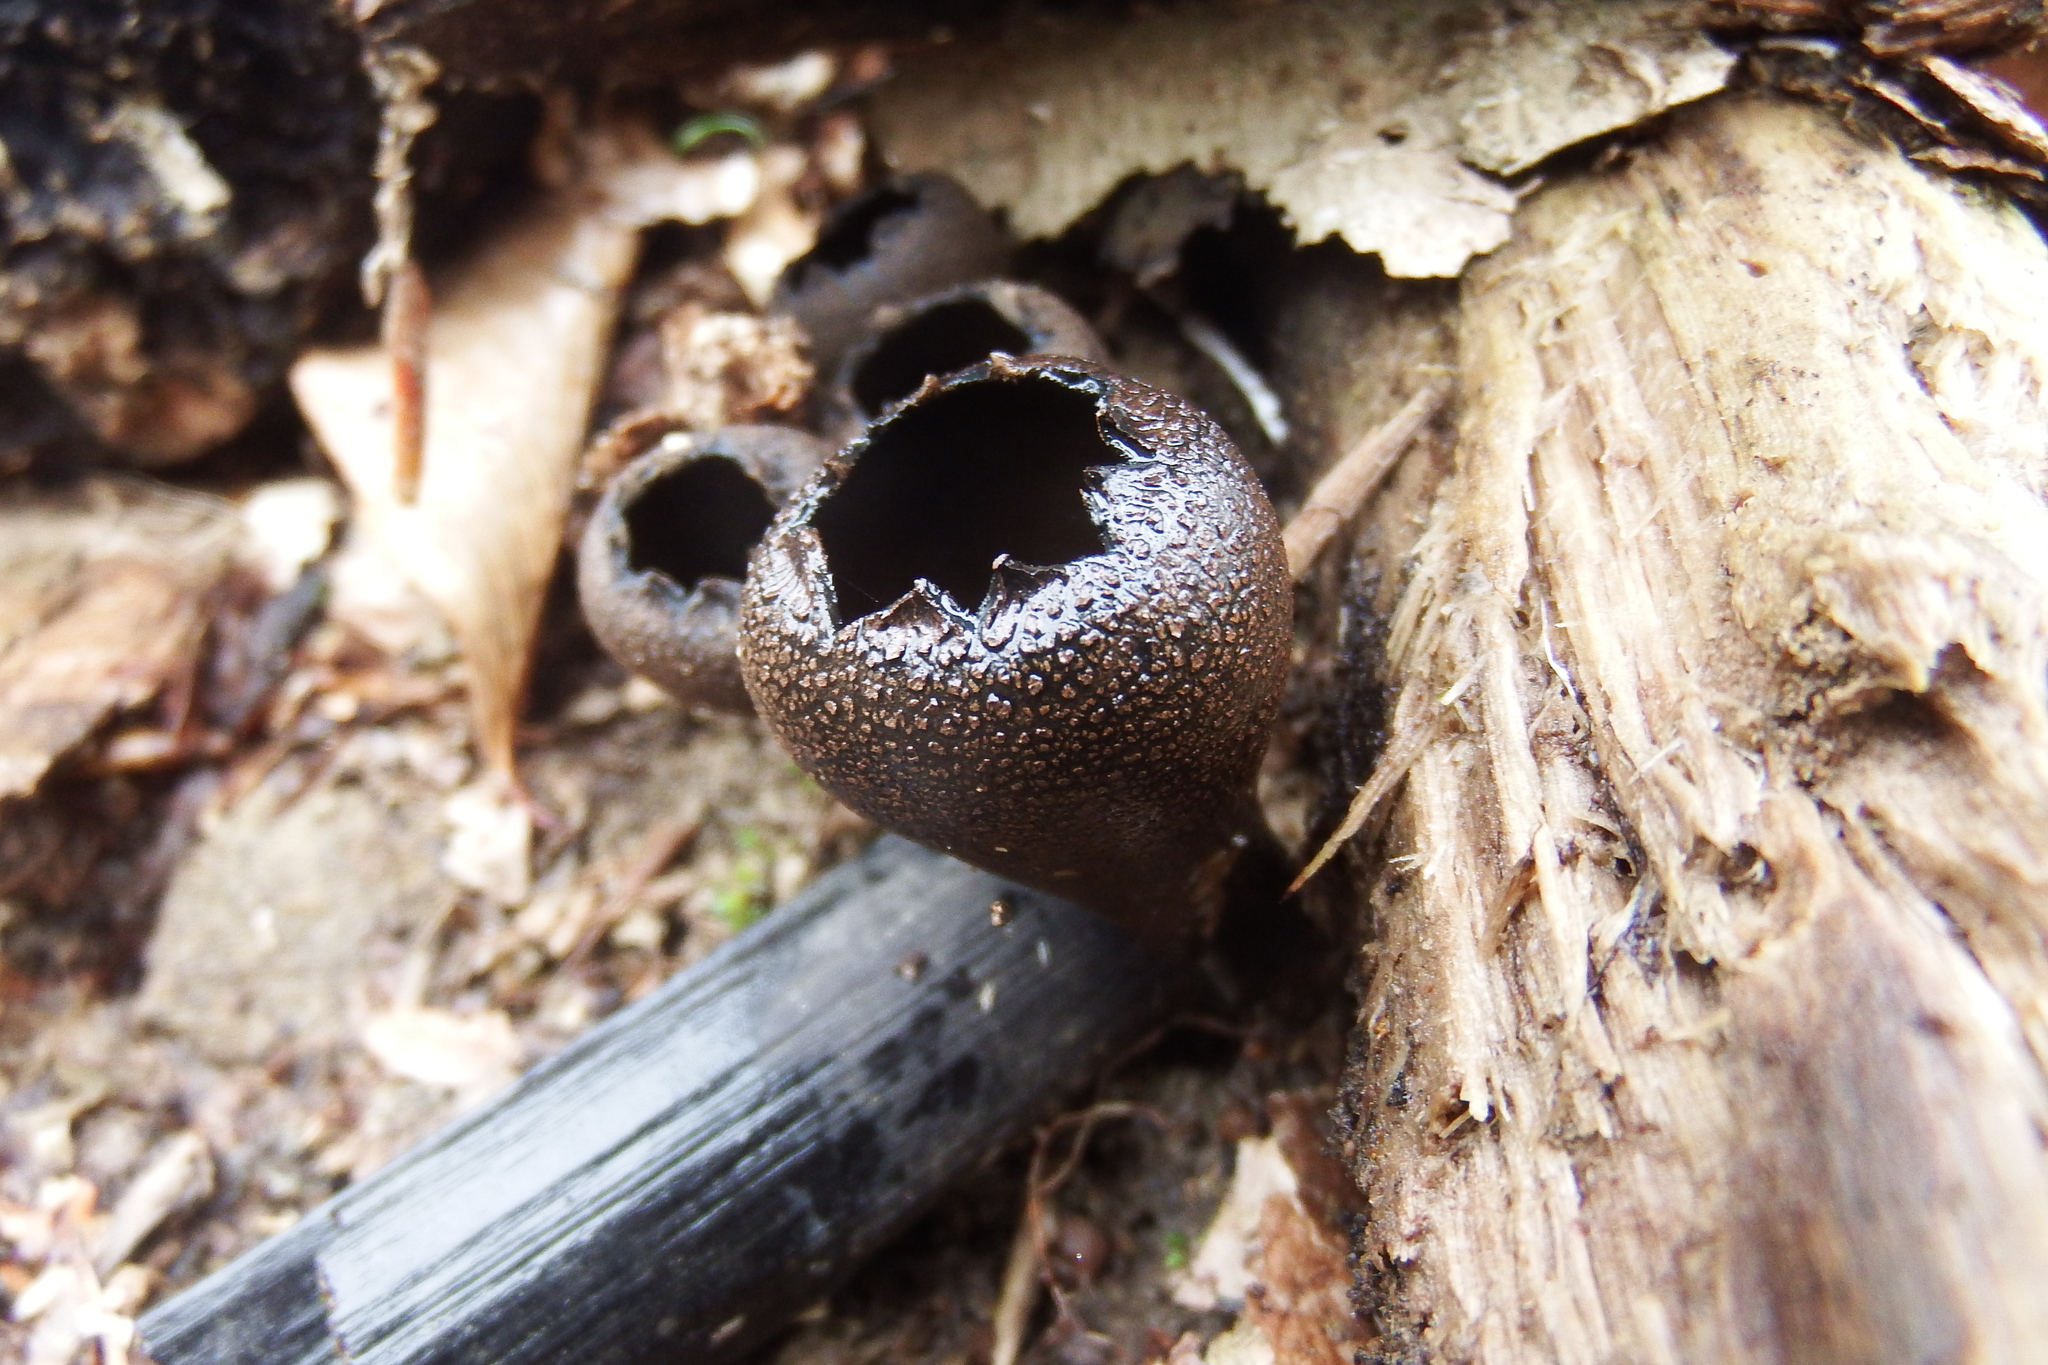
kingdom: Fungi
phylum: Ascomycota
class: Pezizomycetes
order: Pezizales
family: Sarcosomataceae
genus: Urnula
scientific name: Urnula craterium
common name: Devil's urn
